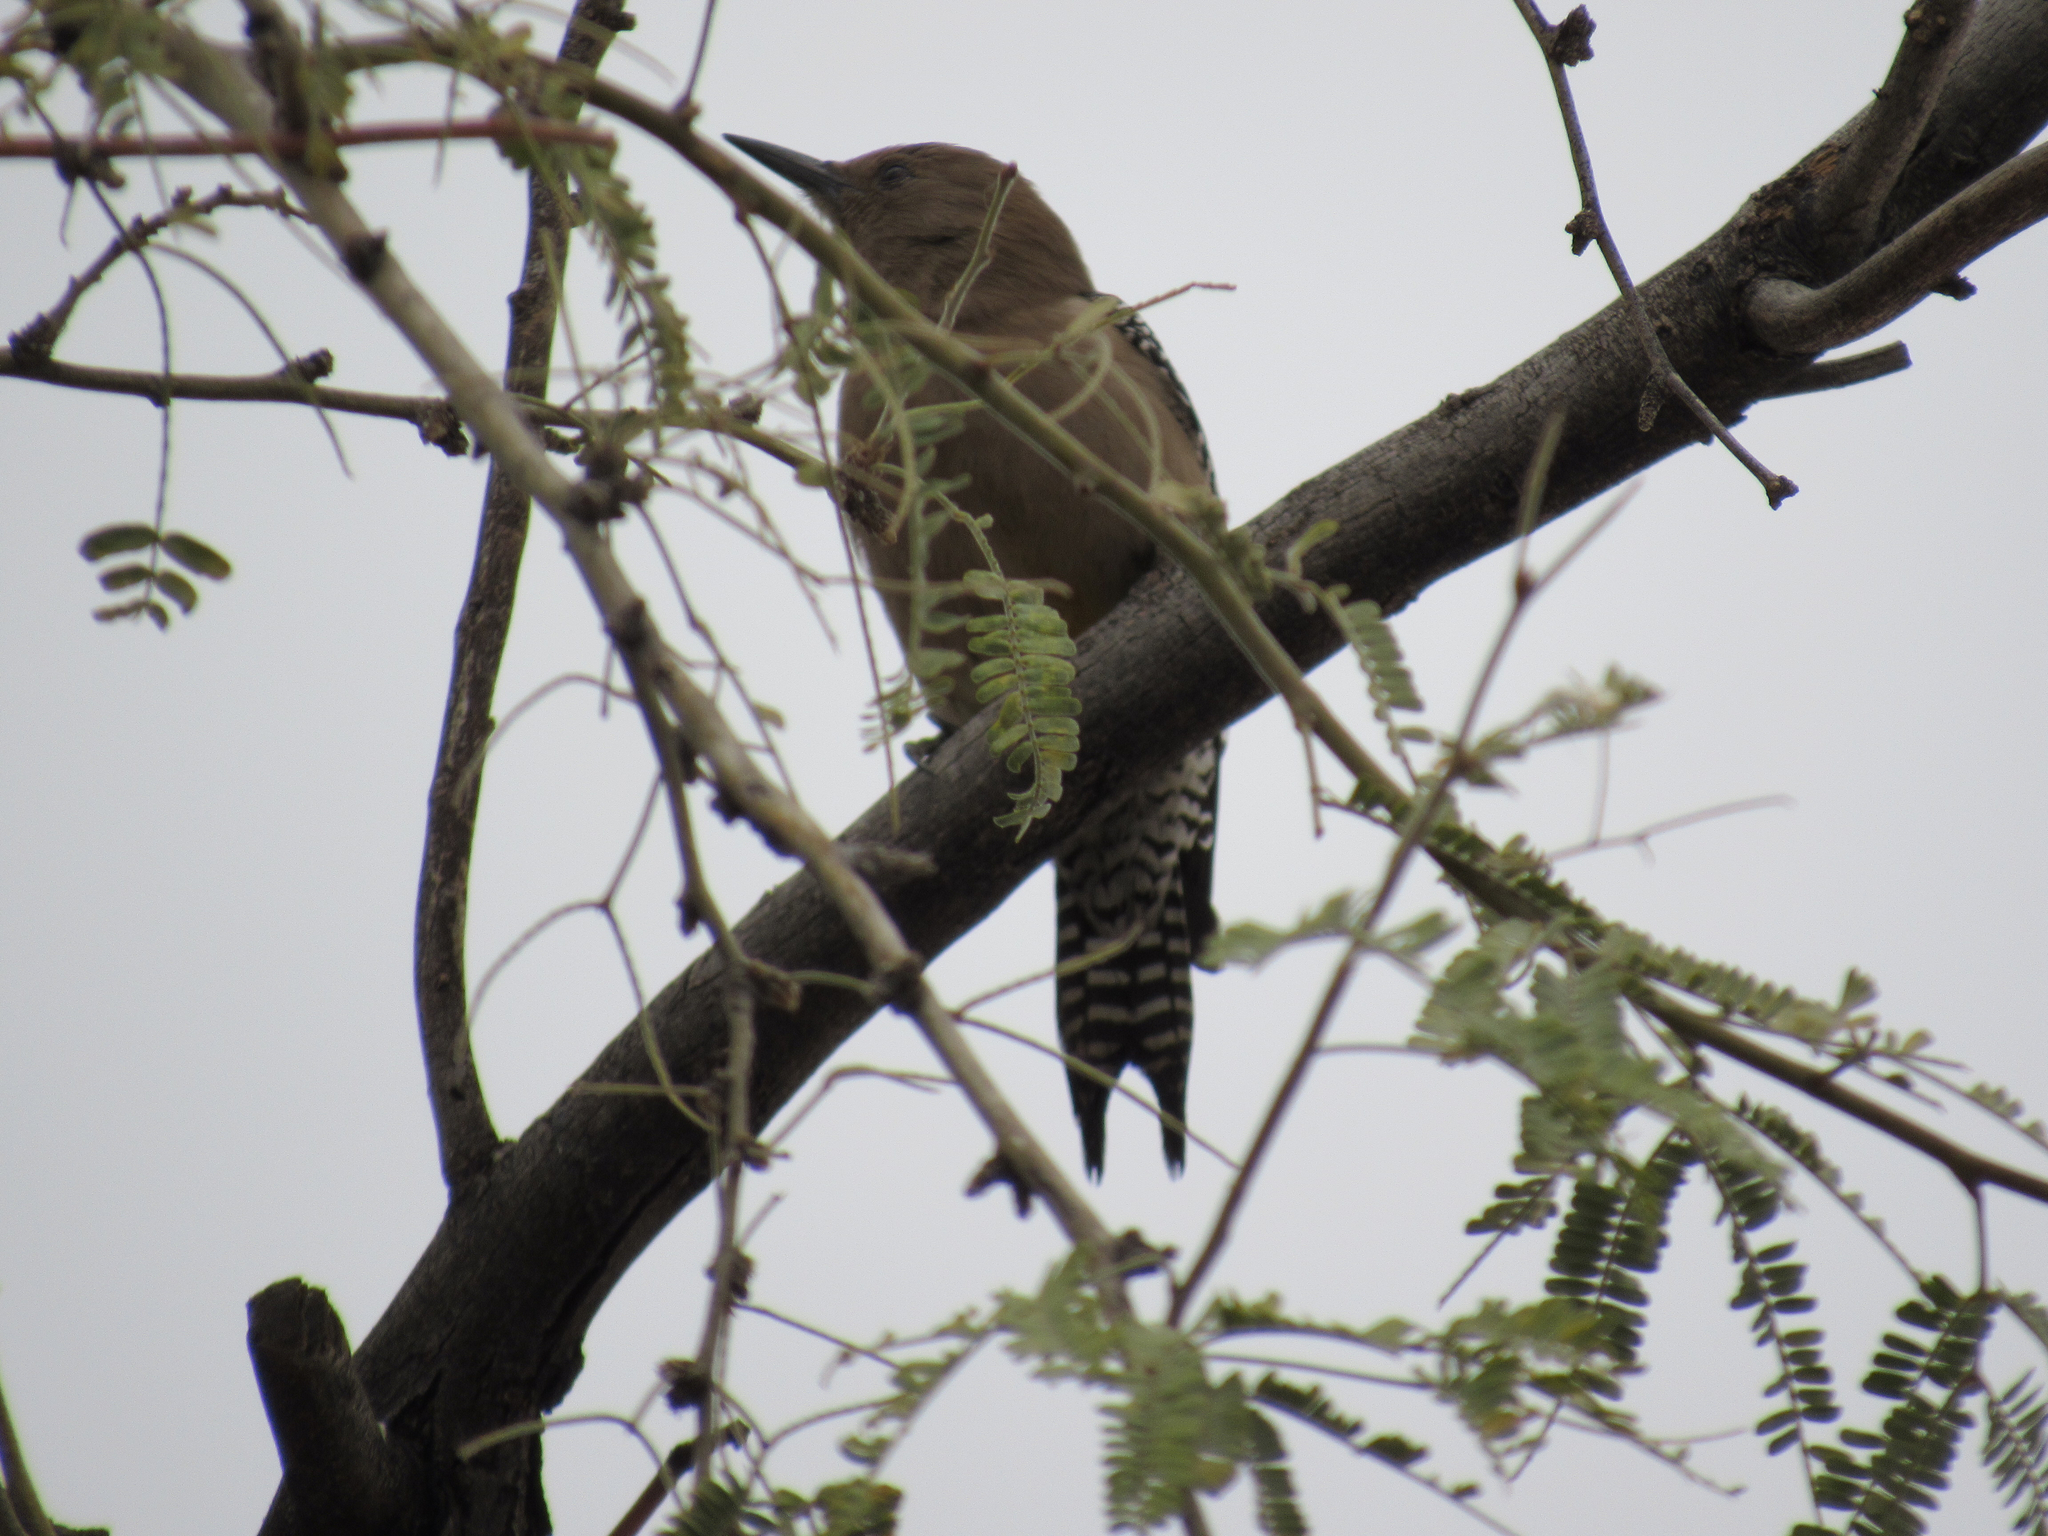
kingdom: Animalia
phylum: Chordata
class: Aves
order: Piciformes
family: Picidae
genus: Melanerpes
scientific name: Melanerpes uropygialis
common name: Gila woodpecker
